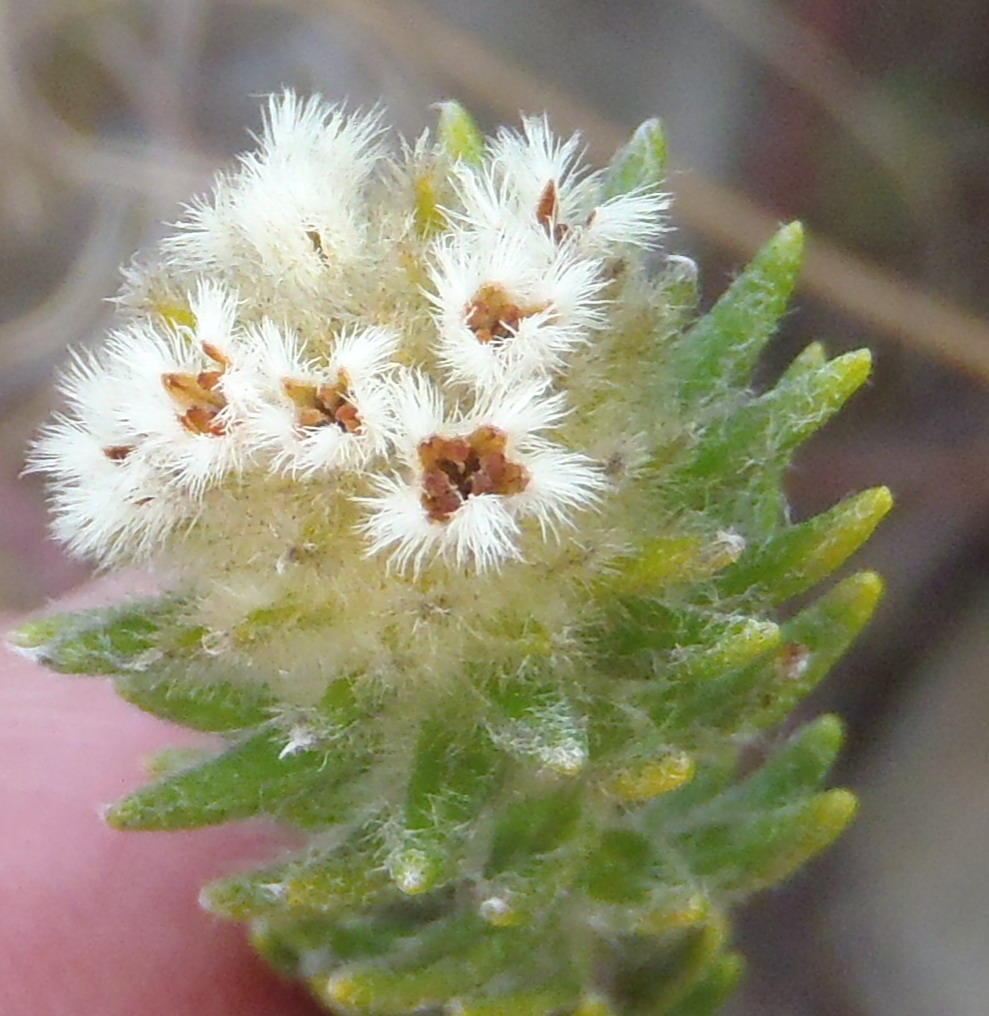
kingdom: Plantae
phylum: Tracheophyta
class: Magnoliopsida
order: Rosales
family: Rhamnaceae
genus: Phylica
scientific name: Phylica strigosa
